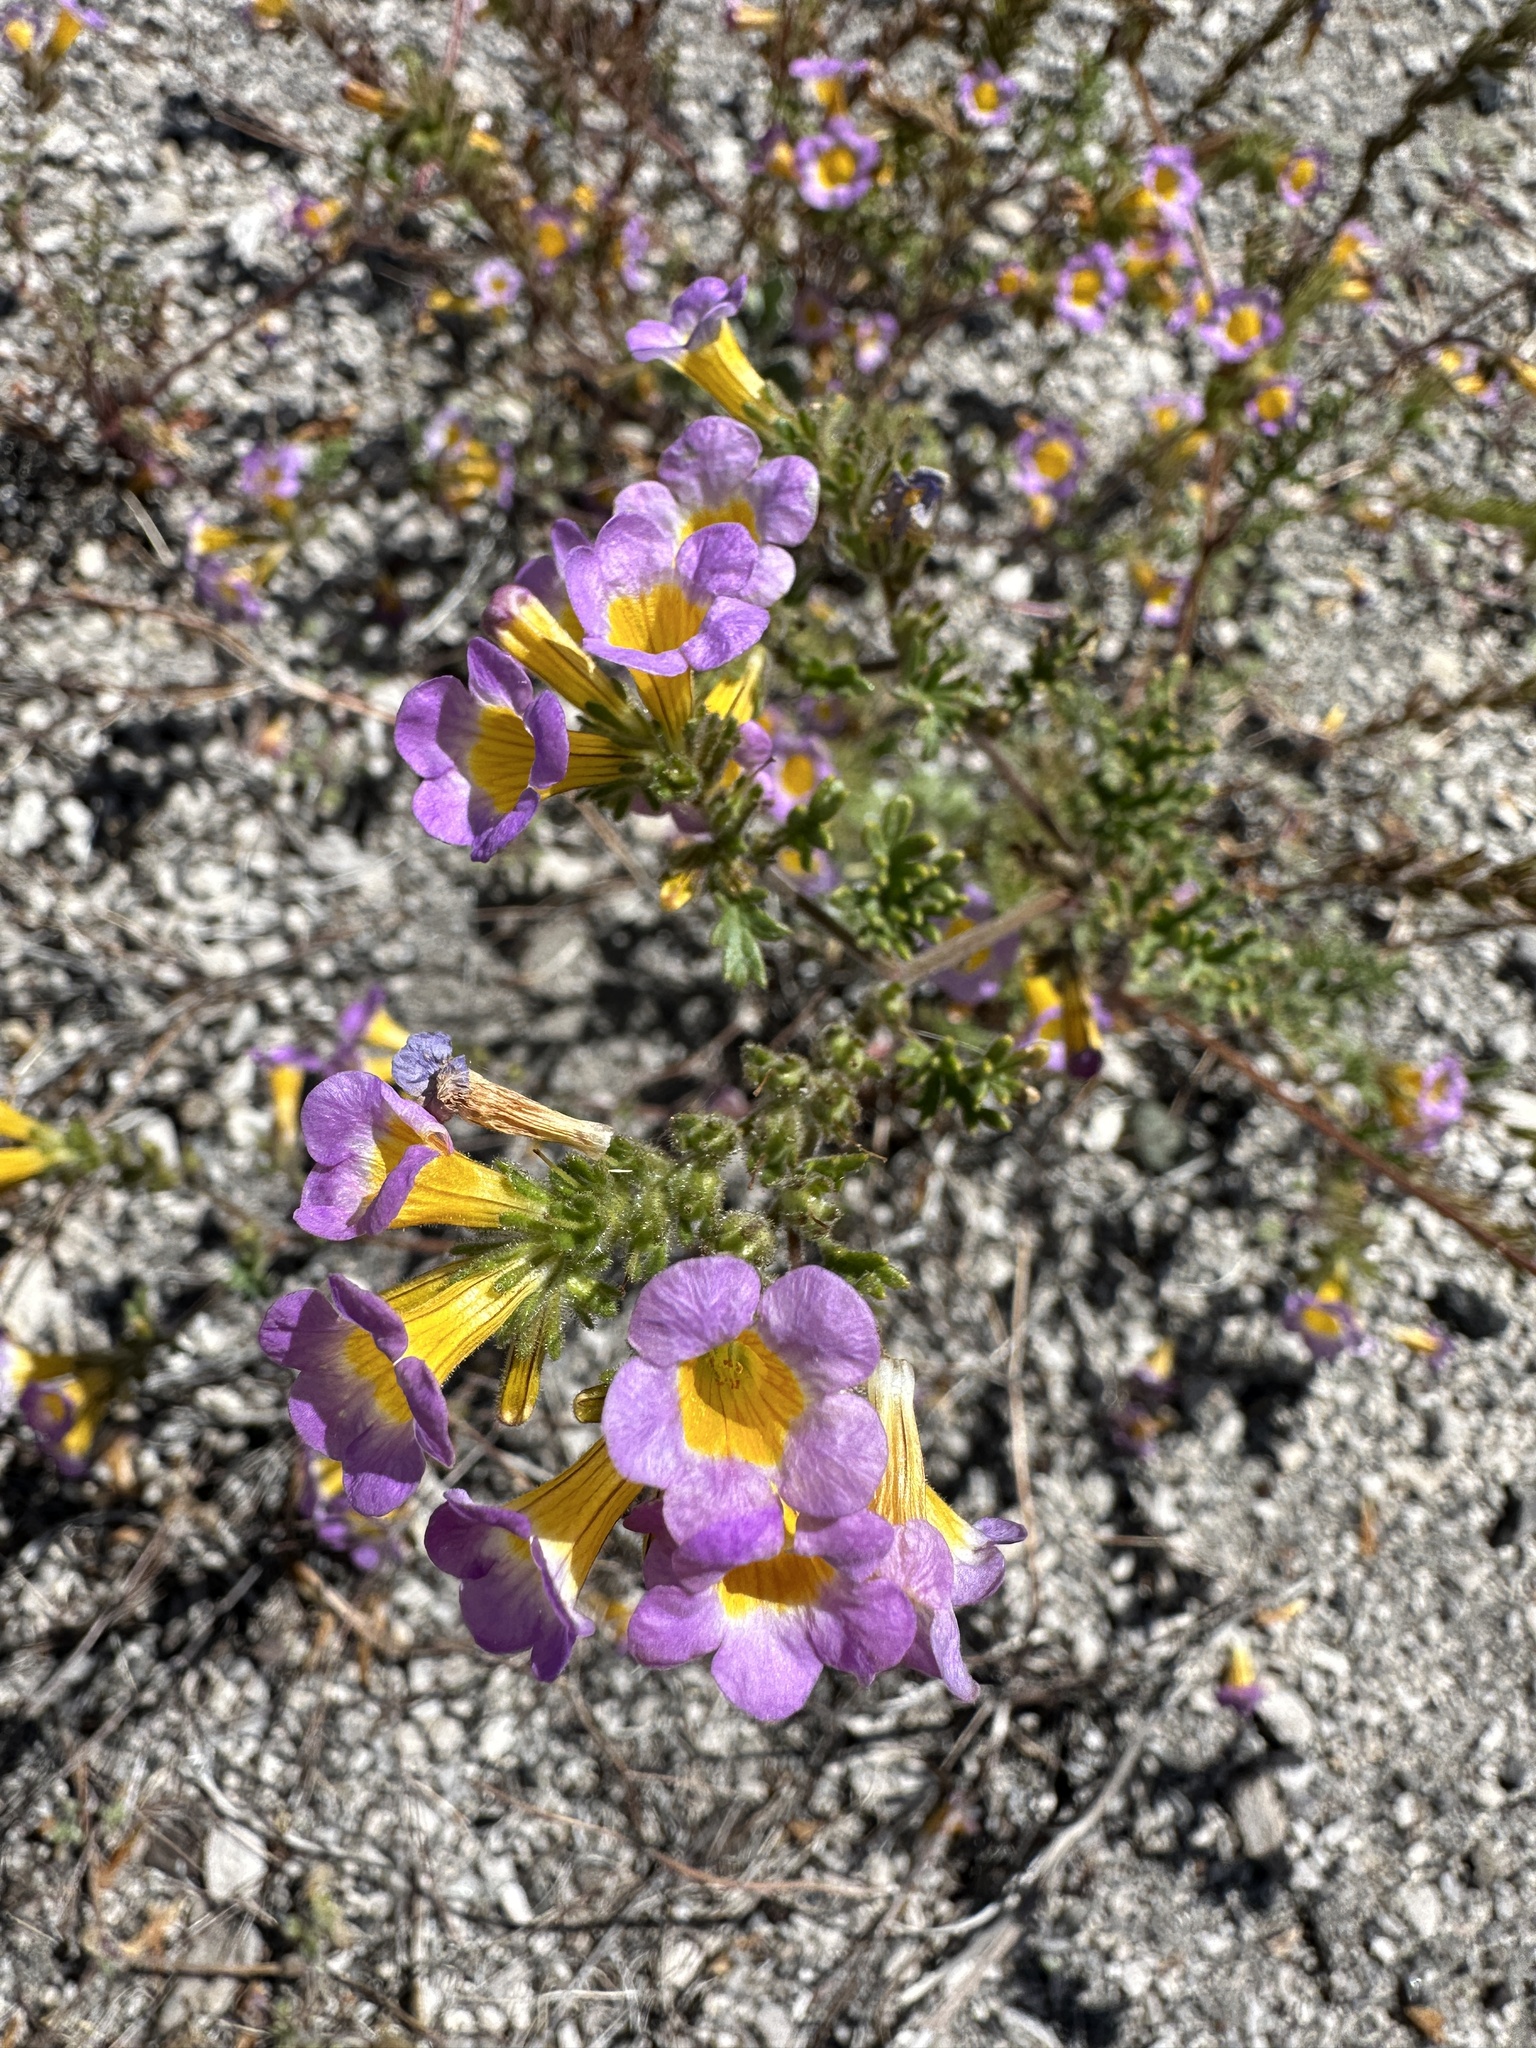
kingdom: Plantae
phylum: Tracheophyta
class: Magnoliopsida
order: Boraginales
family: Hydrophyllaceae
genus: Phacelia
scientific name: Phacelia bicolor
